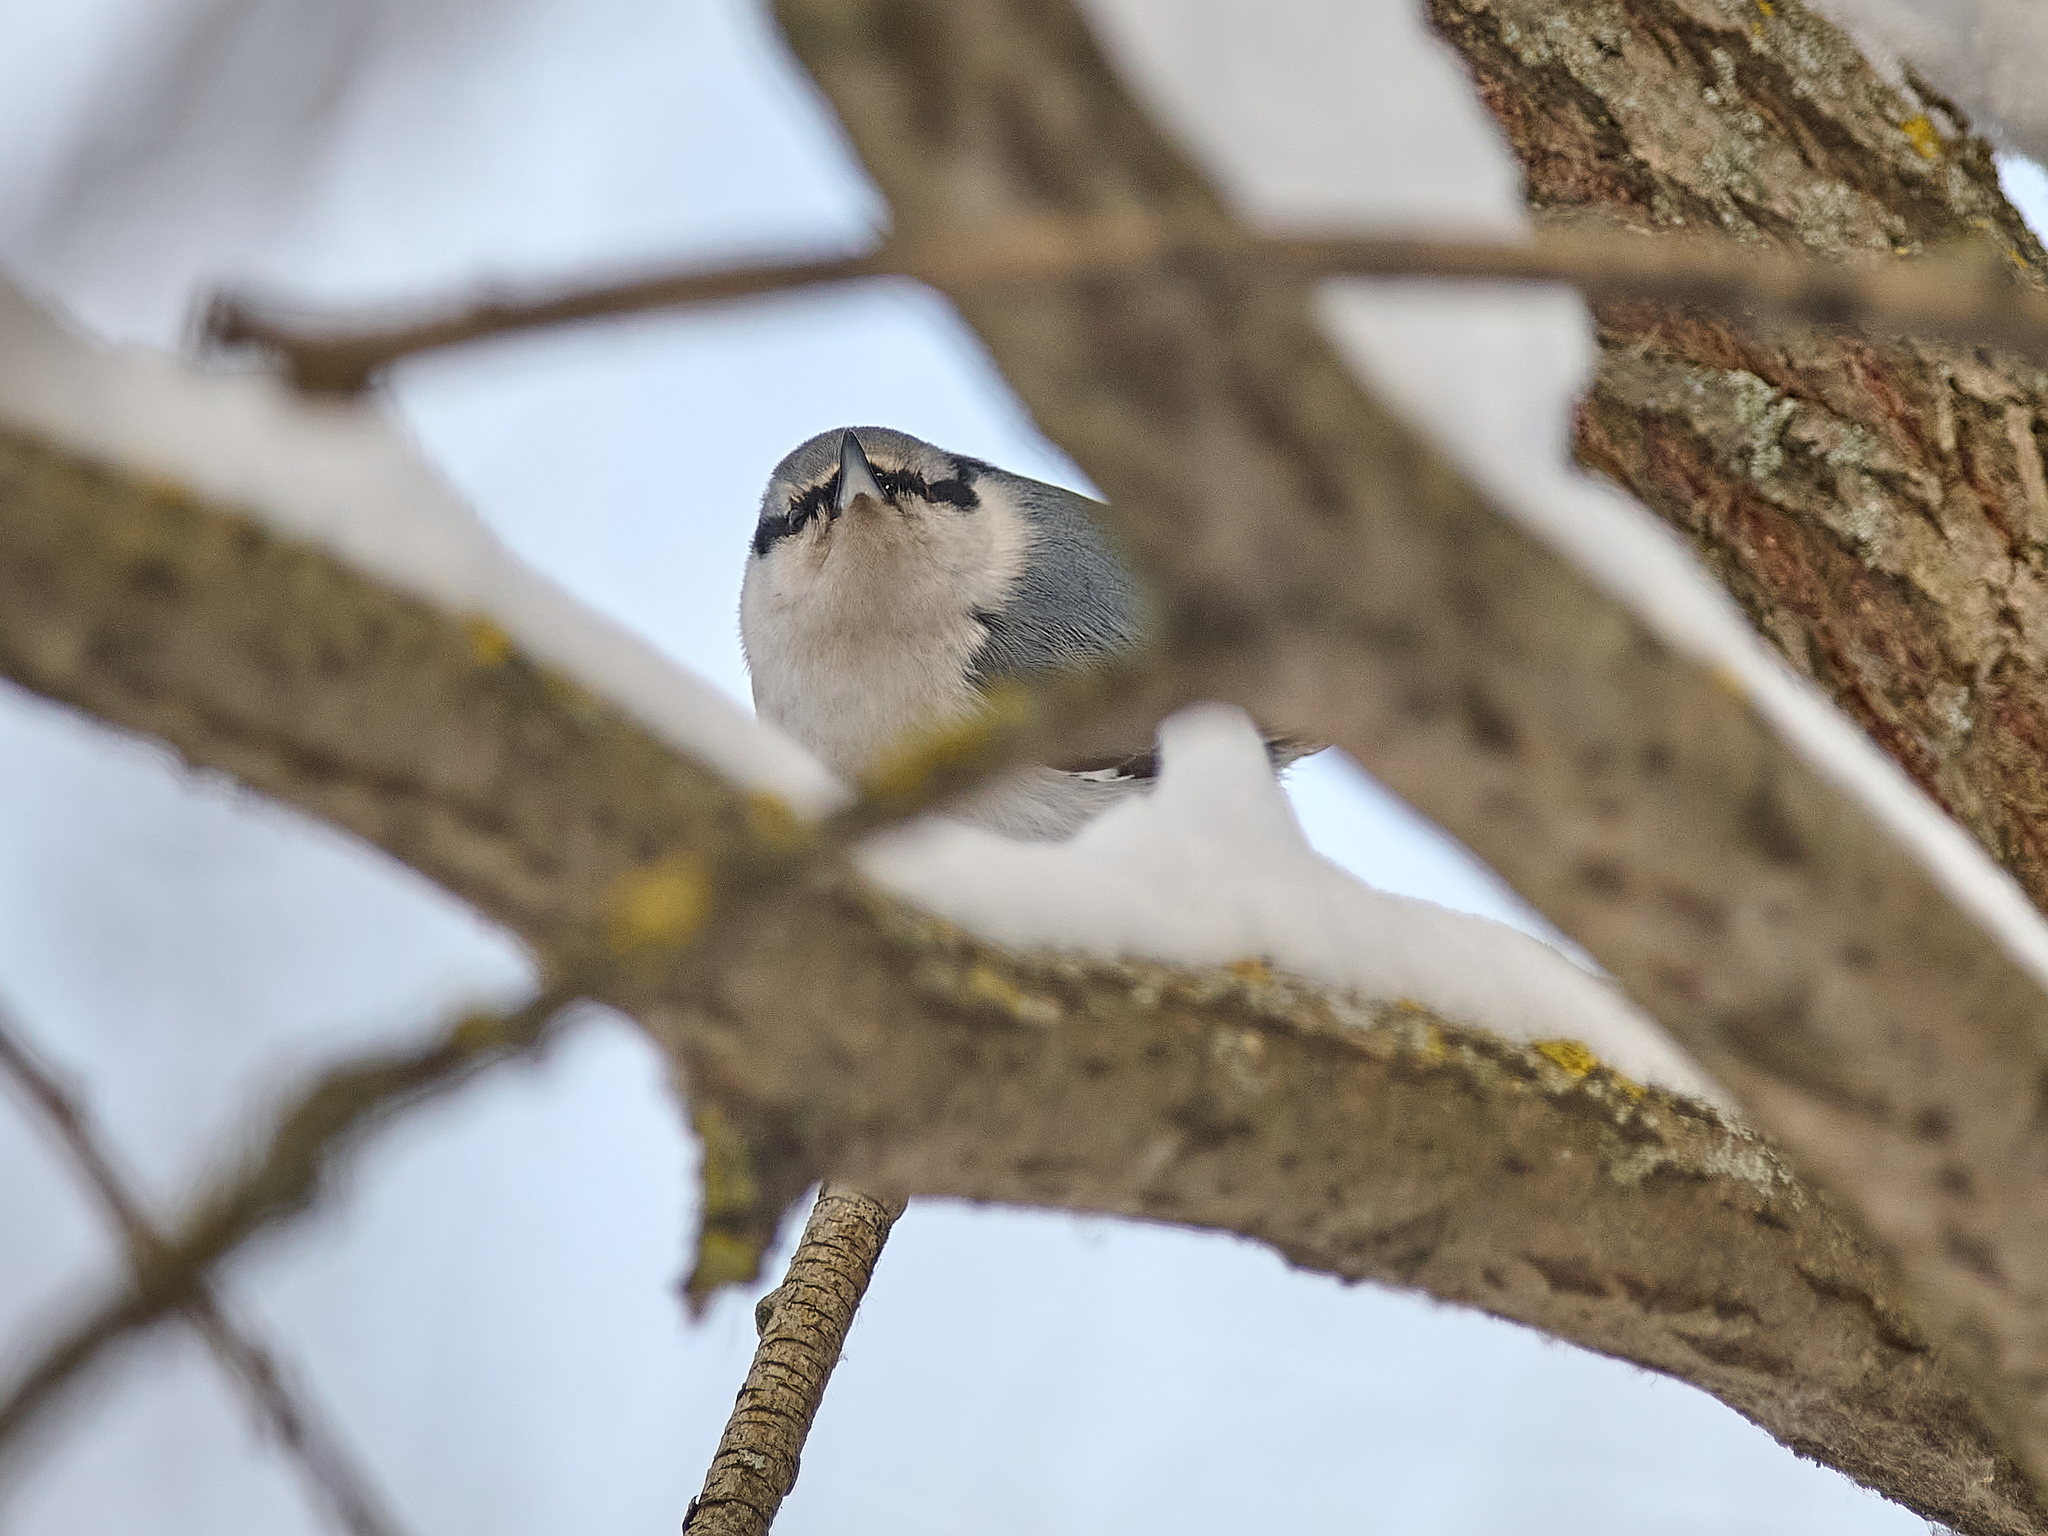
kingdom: Animalia
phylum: Chordata
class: Aves
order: Passeriformes
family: Sittidae
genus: Sitta
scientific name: Sitta europaea
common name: Eurasian nuthatch
